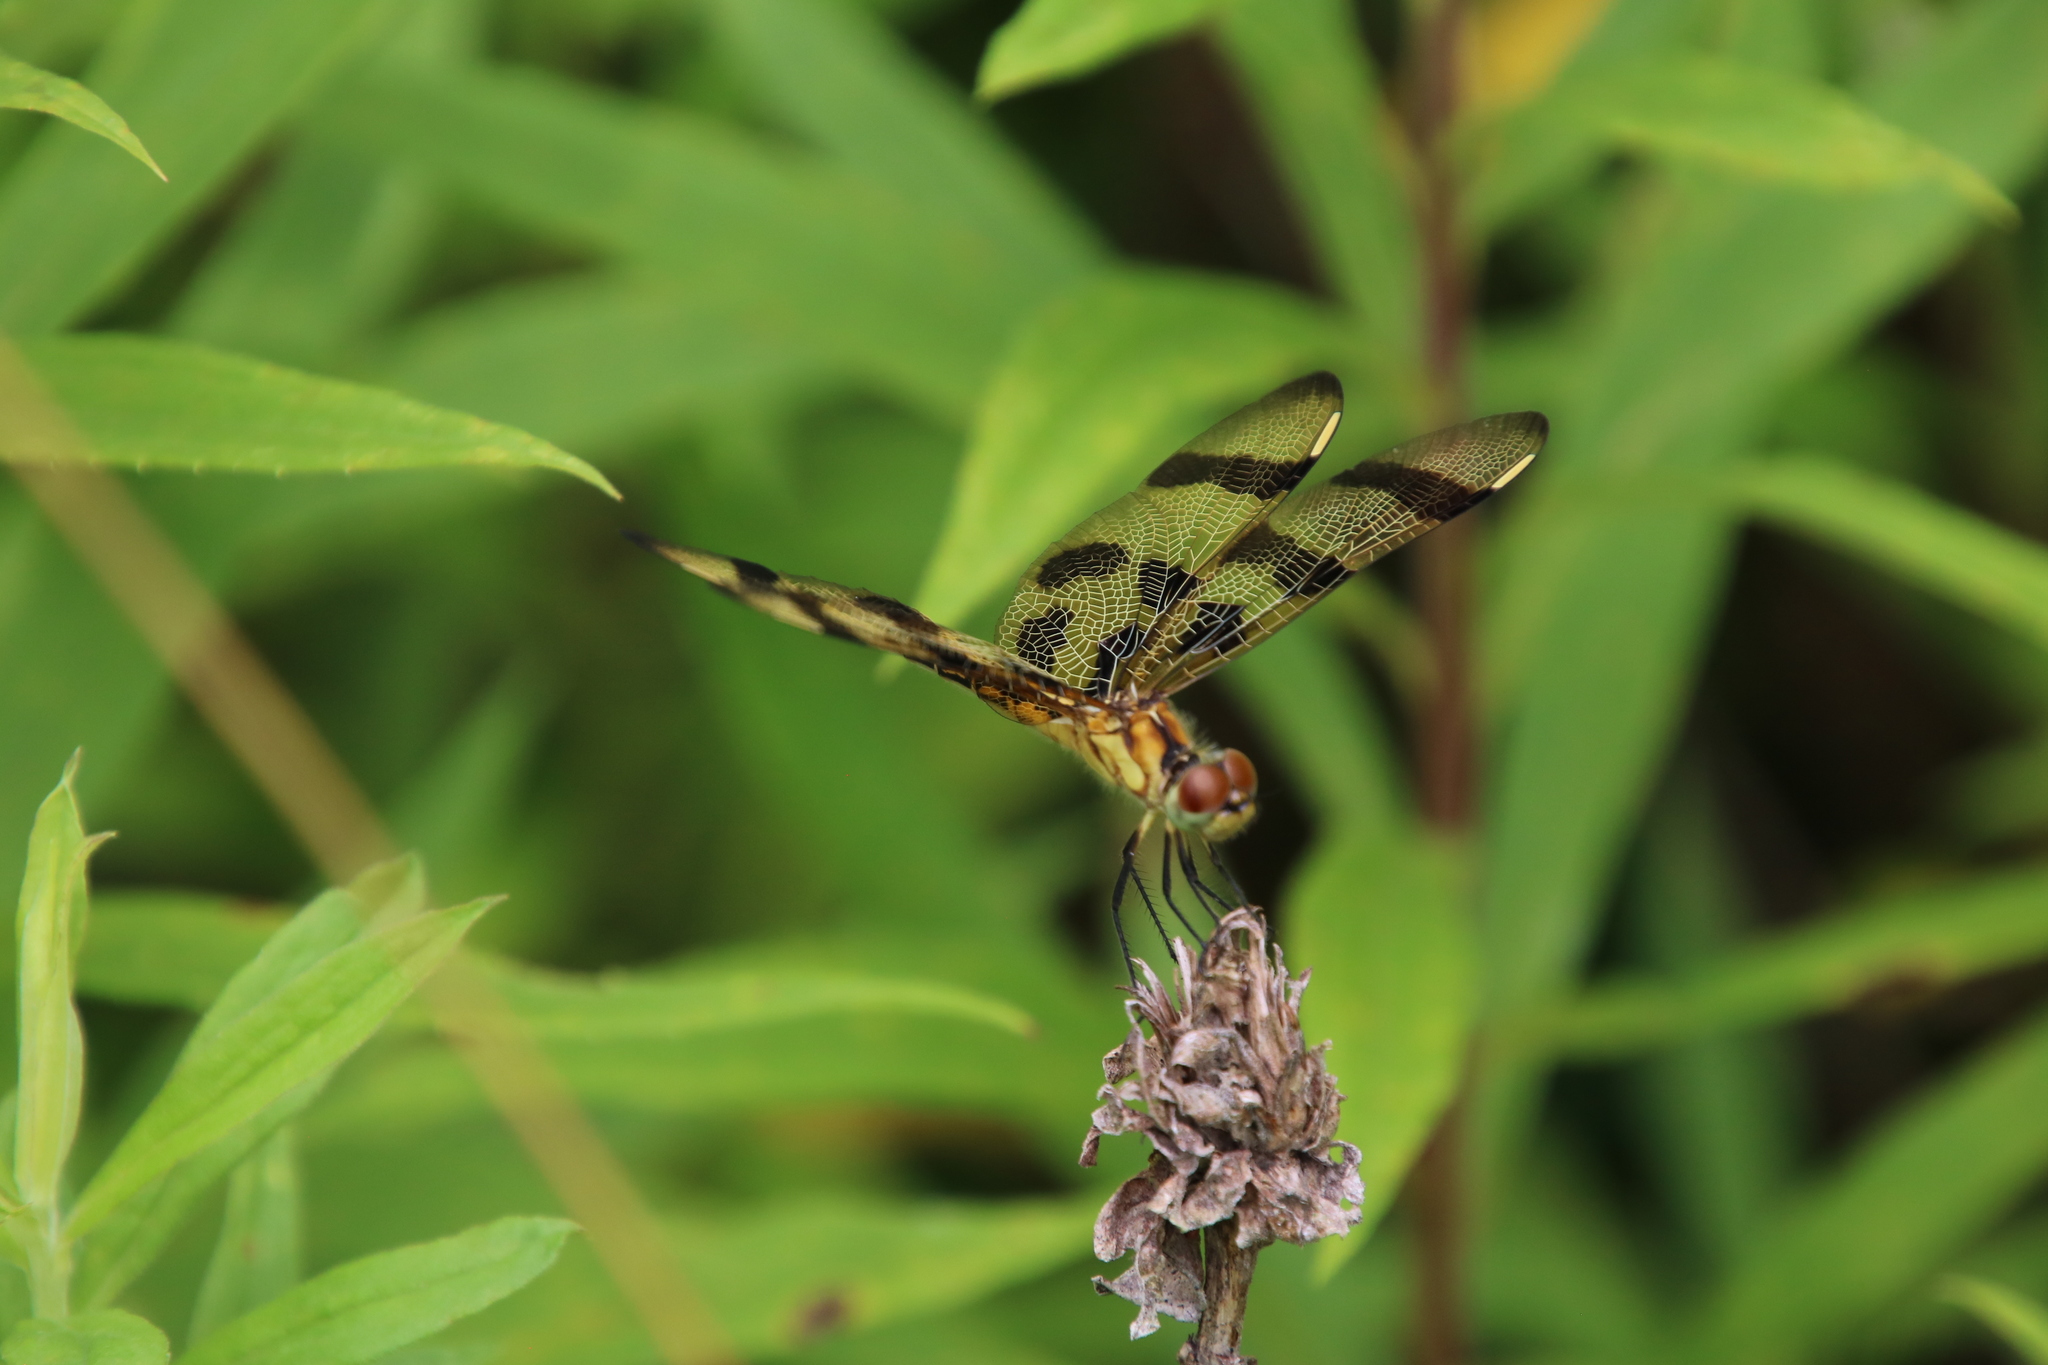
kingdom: Animalia
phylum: Arthropoda
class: Insecta
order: Odonata
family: Libellulidae
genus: Celithemis
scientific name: Celithemis eponina
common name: Halloween pennant
